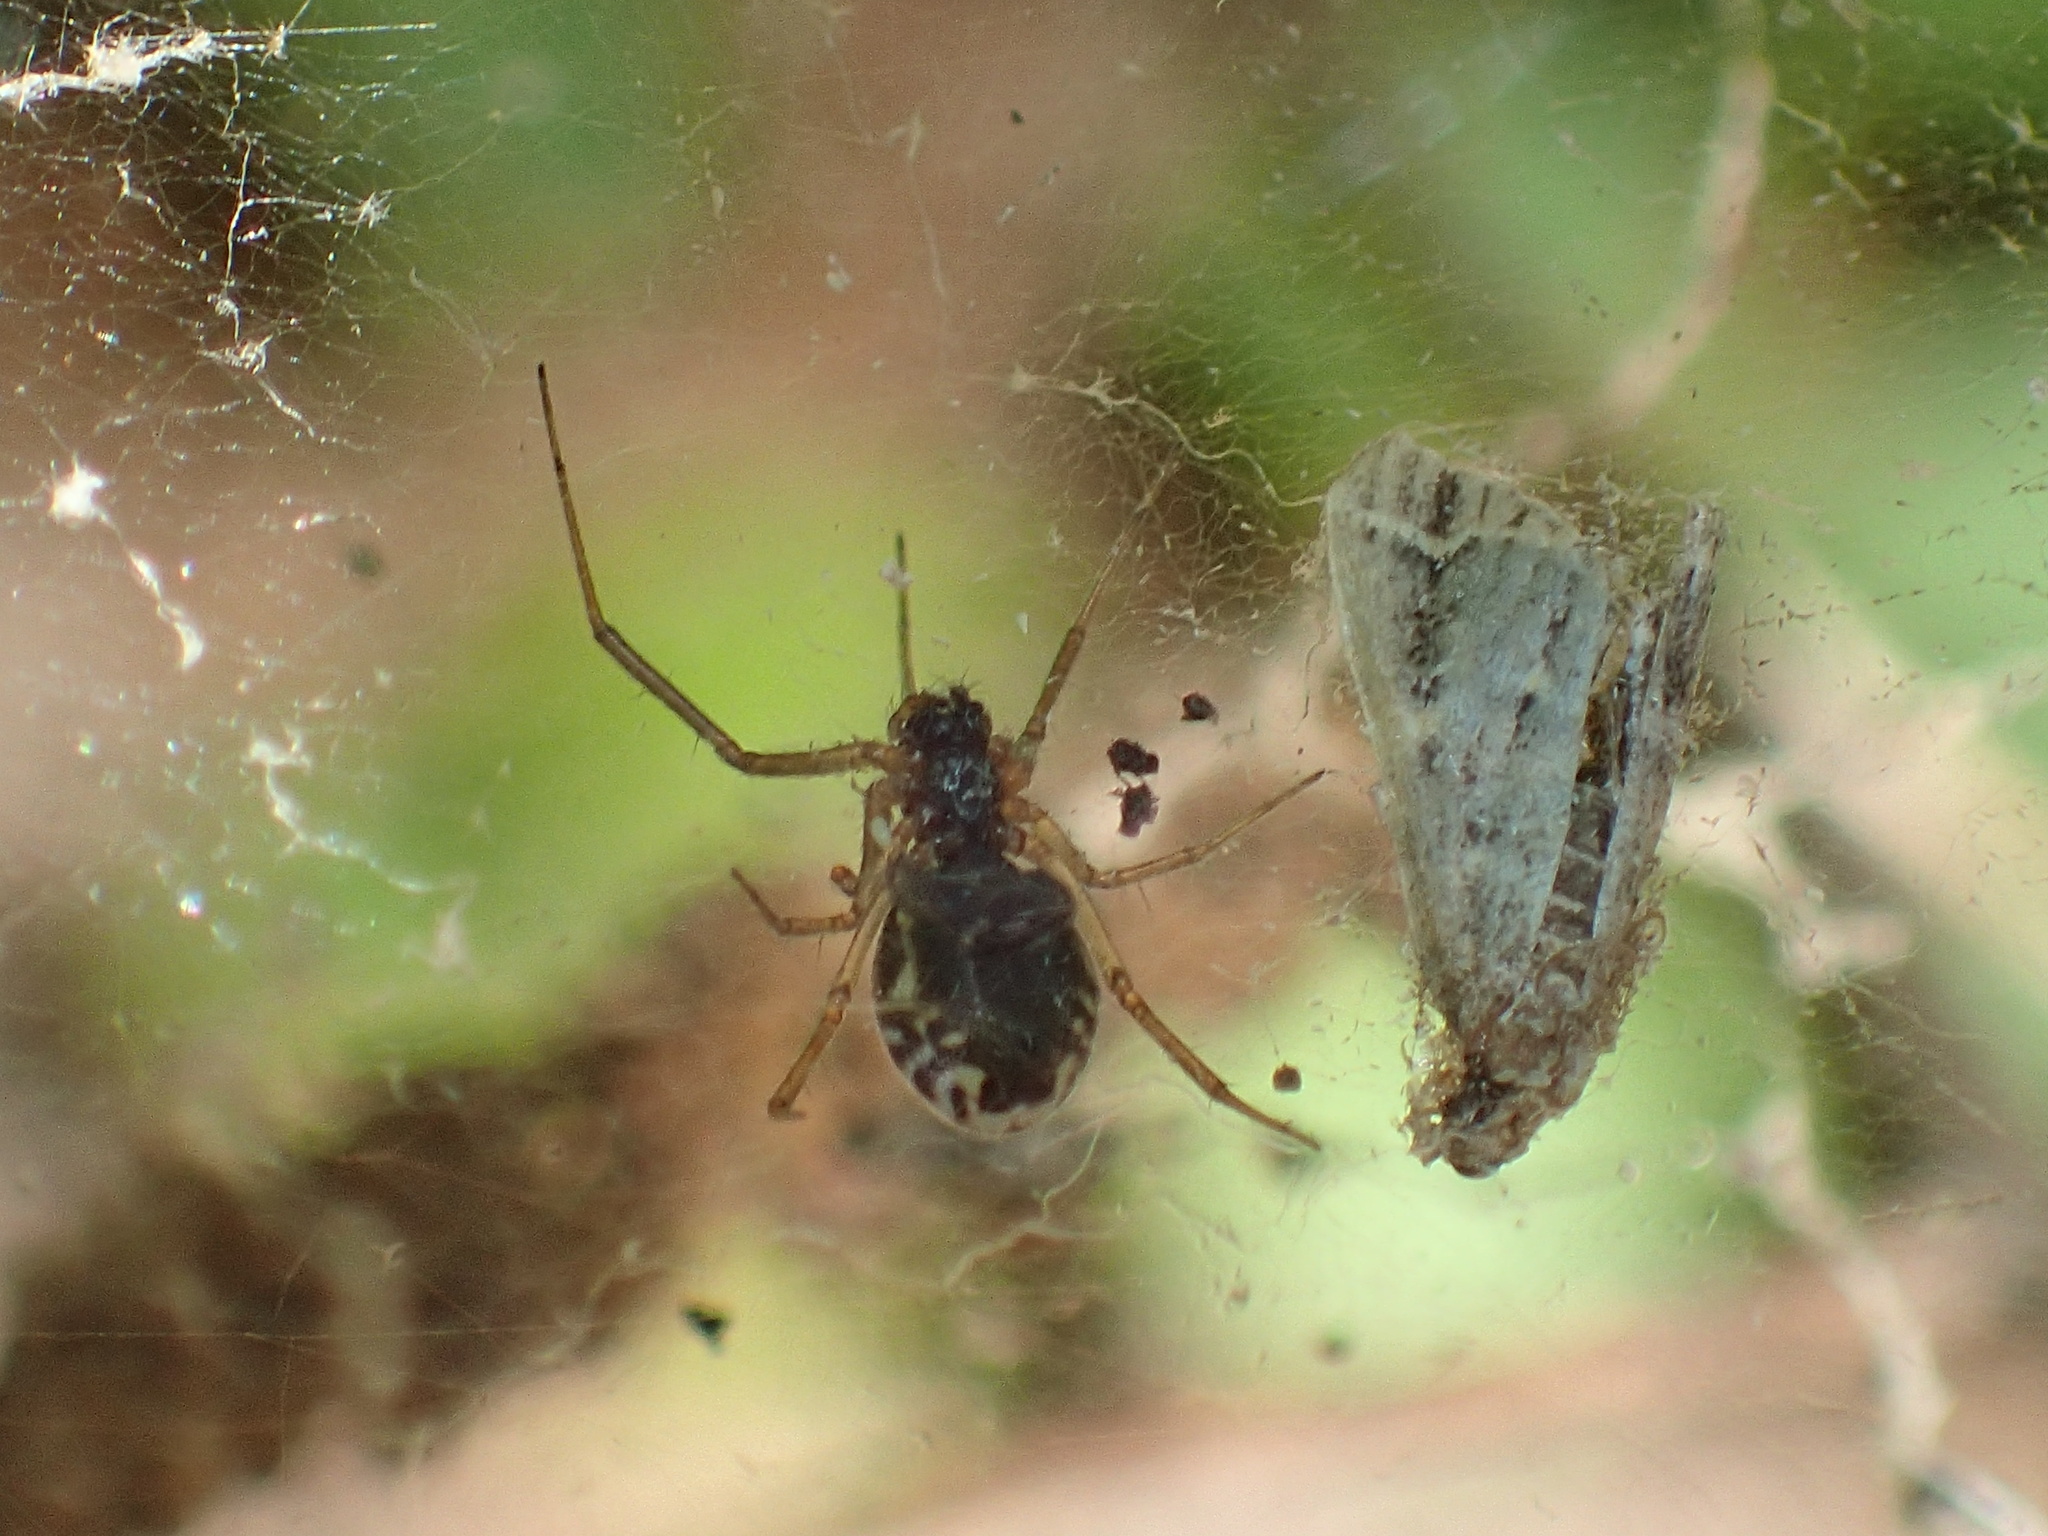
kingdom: Animalia
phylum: Arthropoda
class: Arachnida
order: Araneae
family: Linyphiidae
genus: Frontinella
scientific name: Frontinella pyramitela
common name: Bowl-and-doily spider
